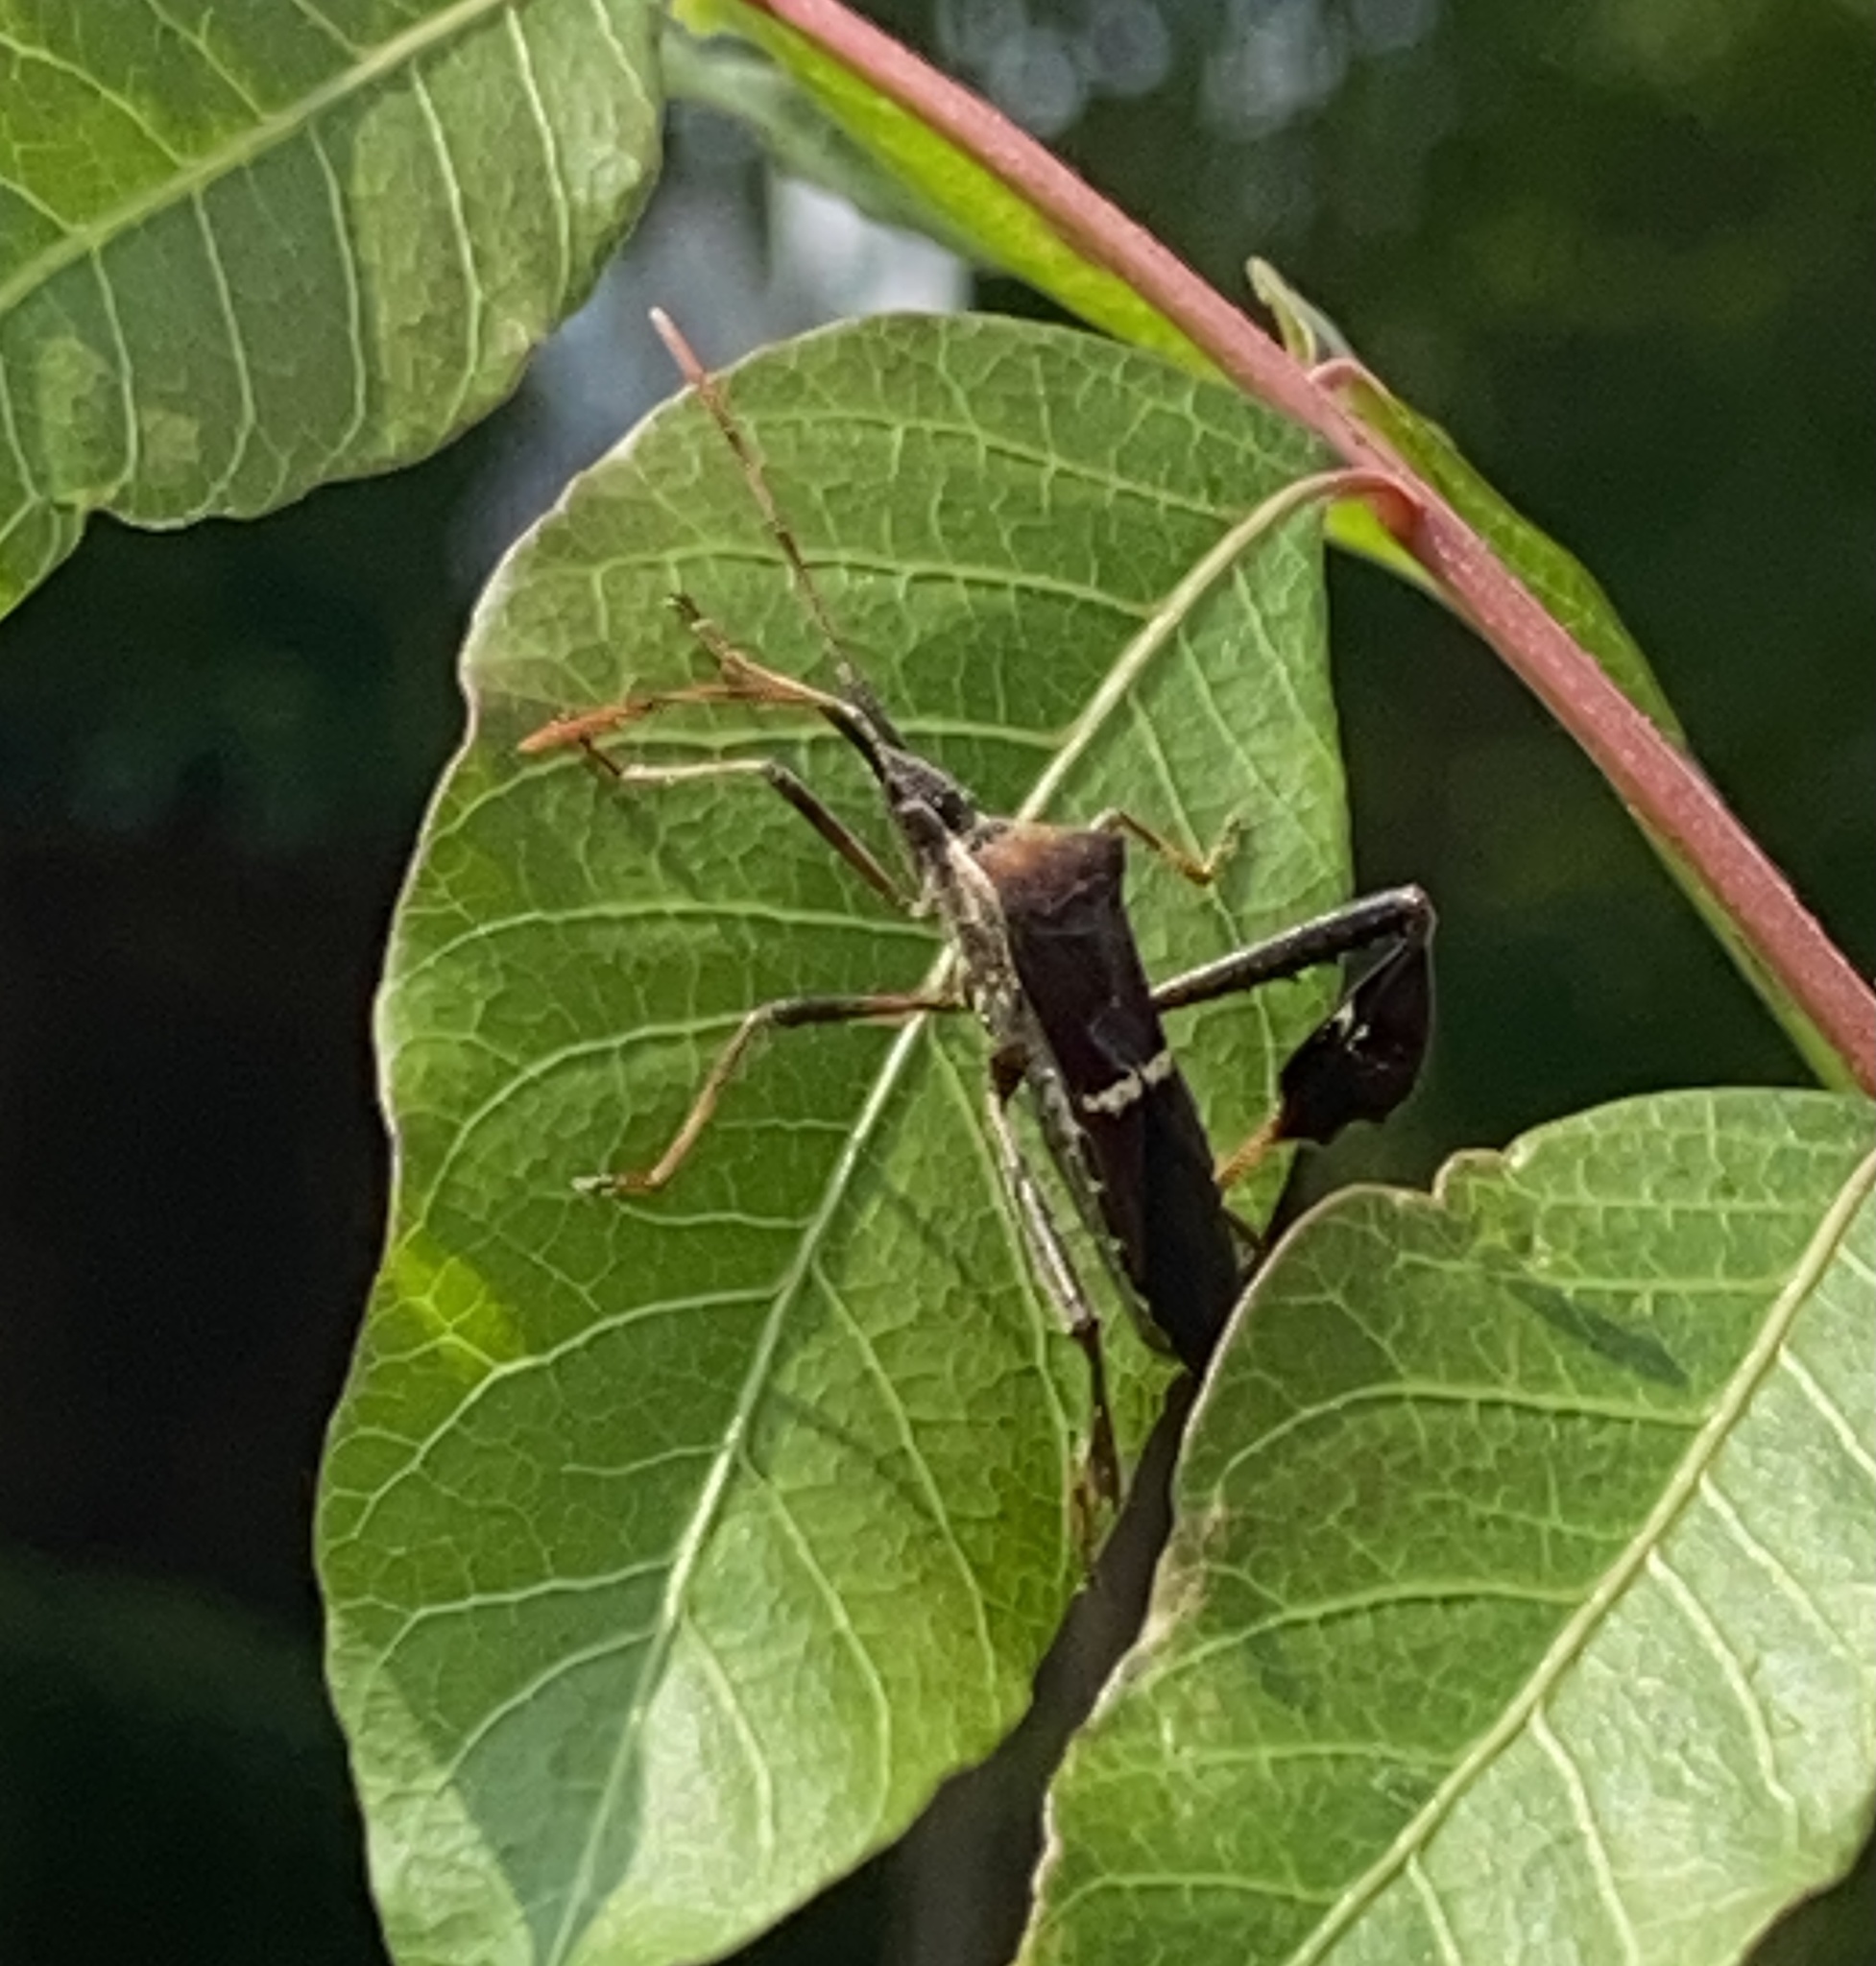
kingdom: Animalia
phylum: Arthropoda
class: Insecta
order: Hemiptera
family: Coreidae
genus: Leptoglossus
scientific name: Leptoglossus phyllopus
